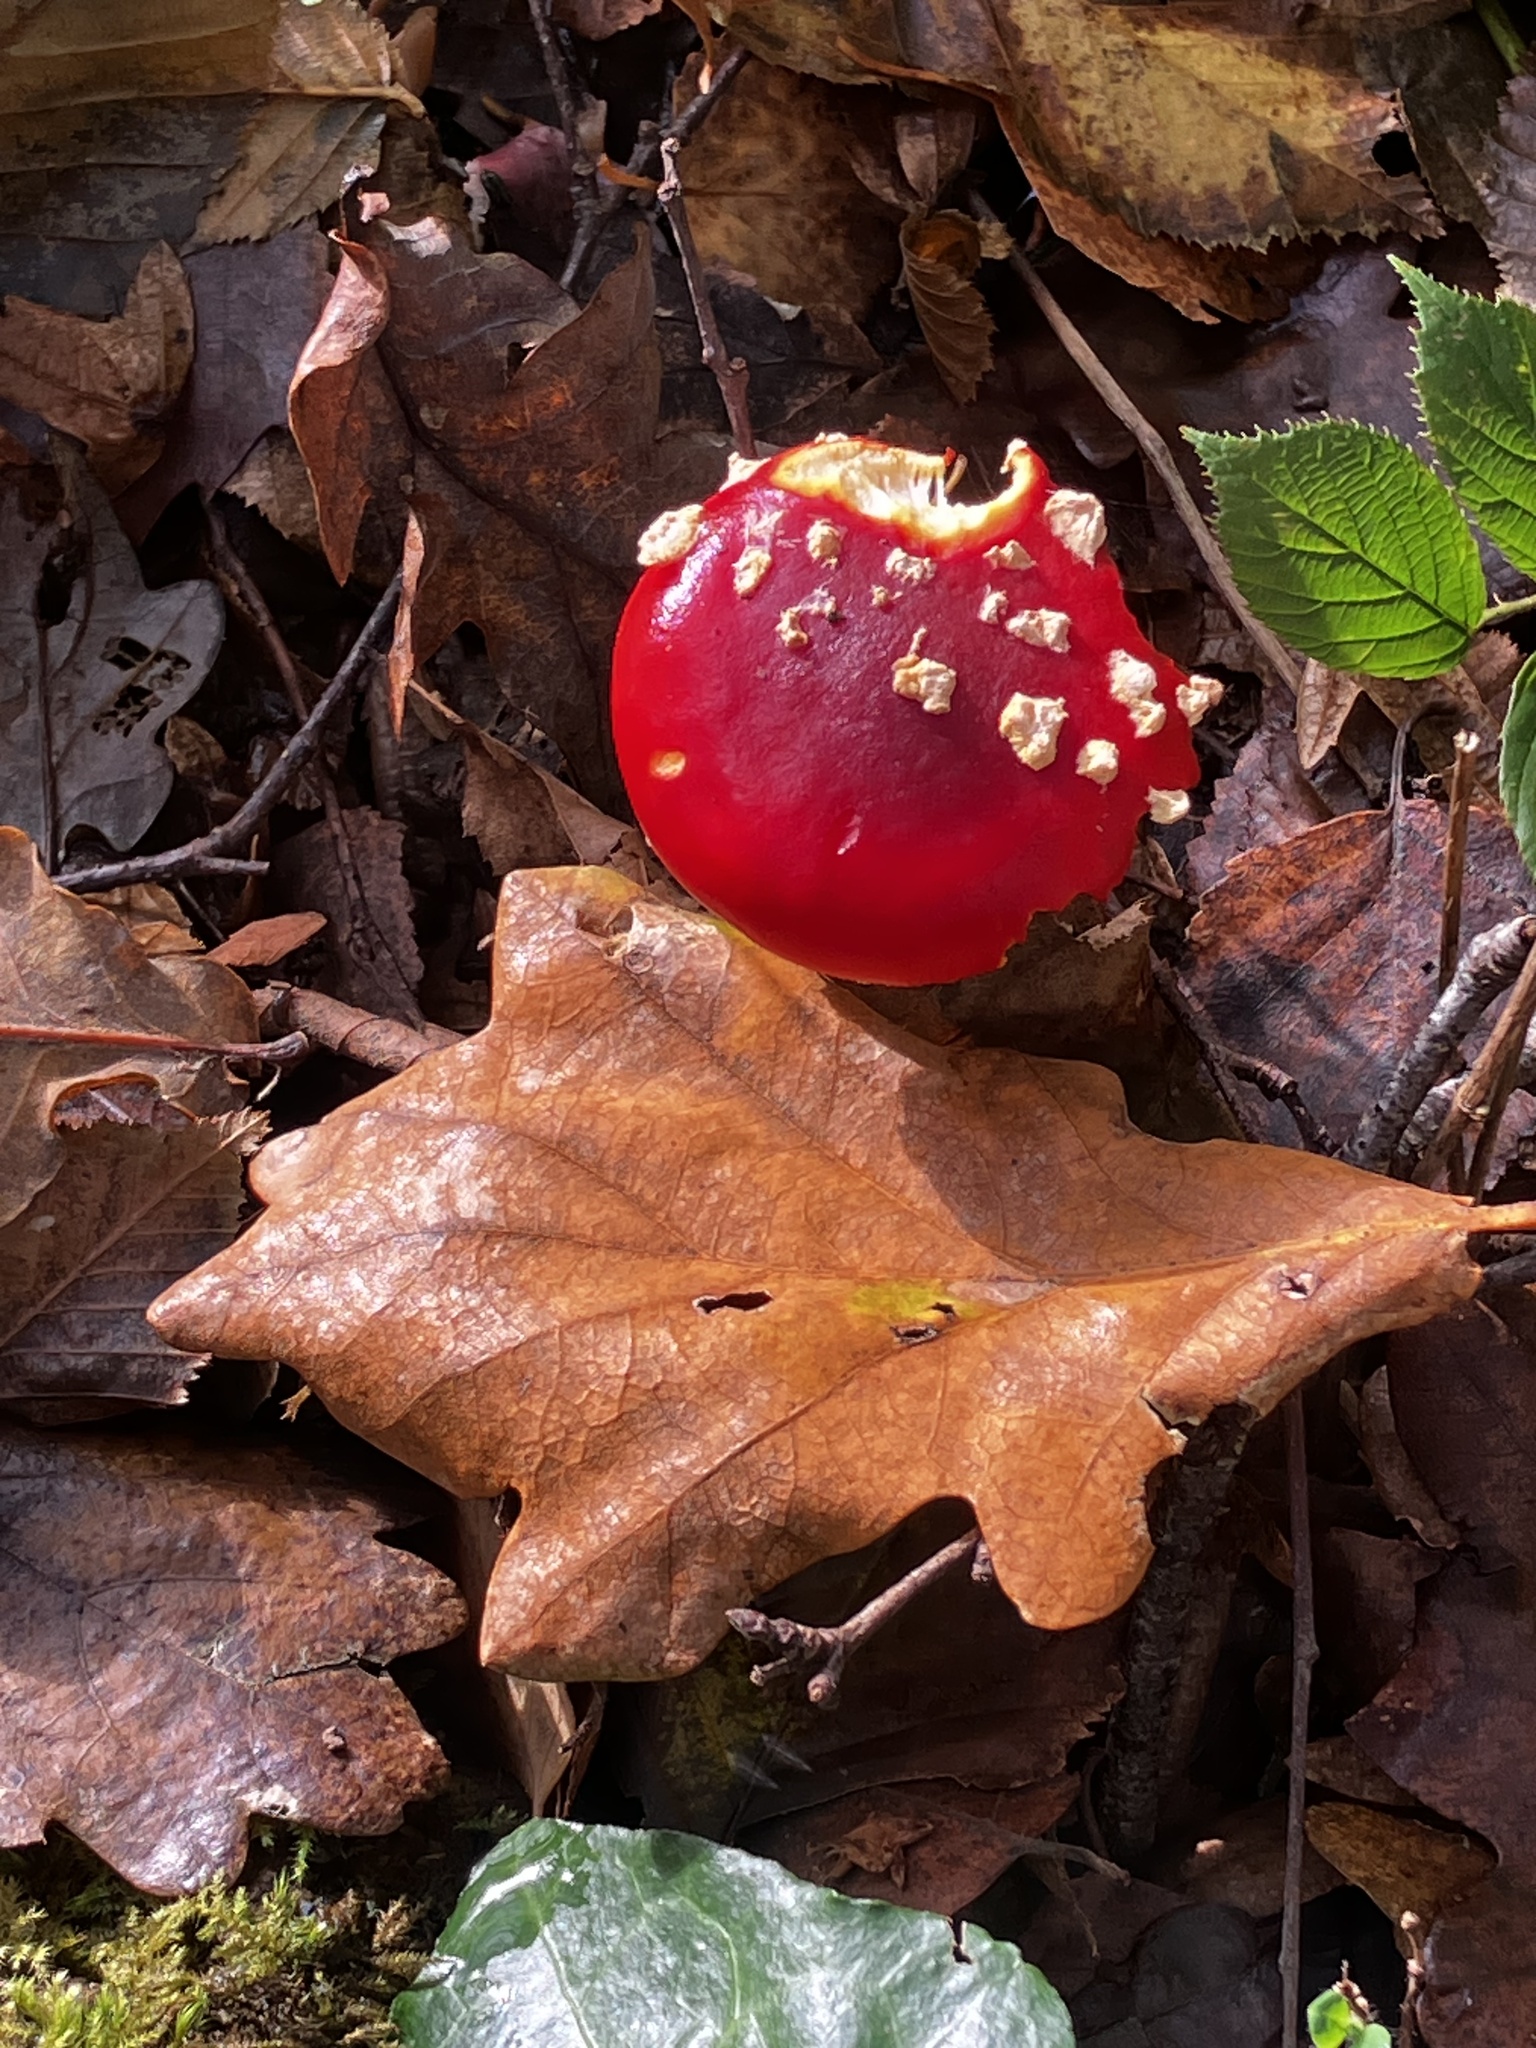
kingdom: Fungi
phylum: Basidiomycota
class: Agaricomycetes
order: Agaricales
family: Amanitaceae
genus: Amanita
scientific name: Amanita muscaria
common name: Fly agaric
